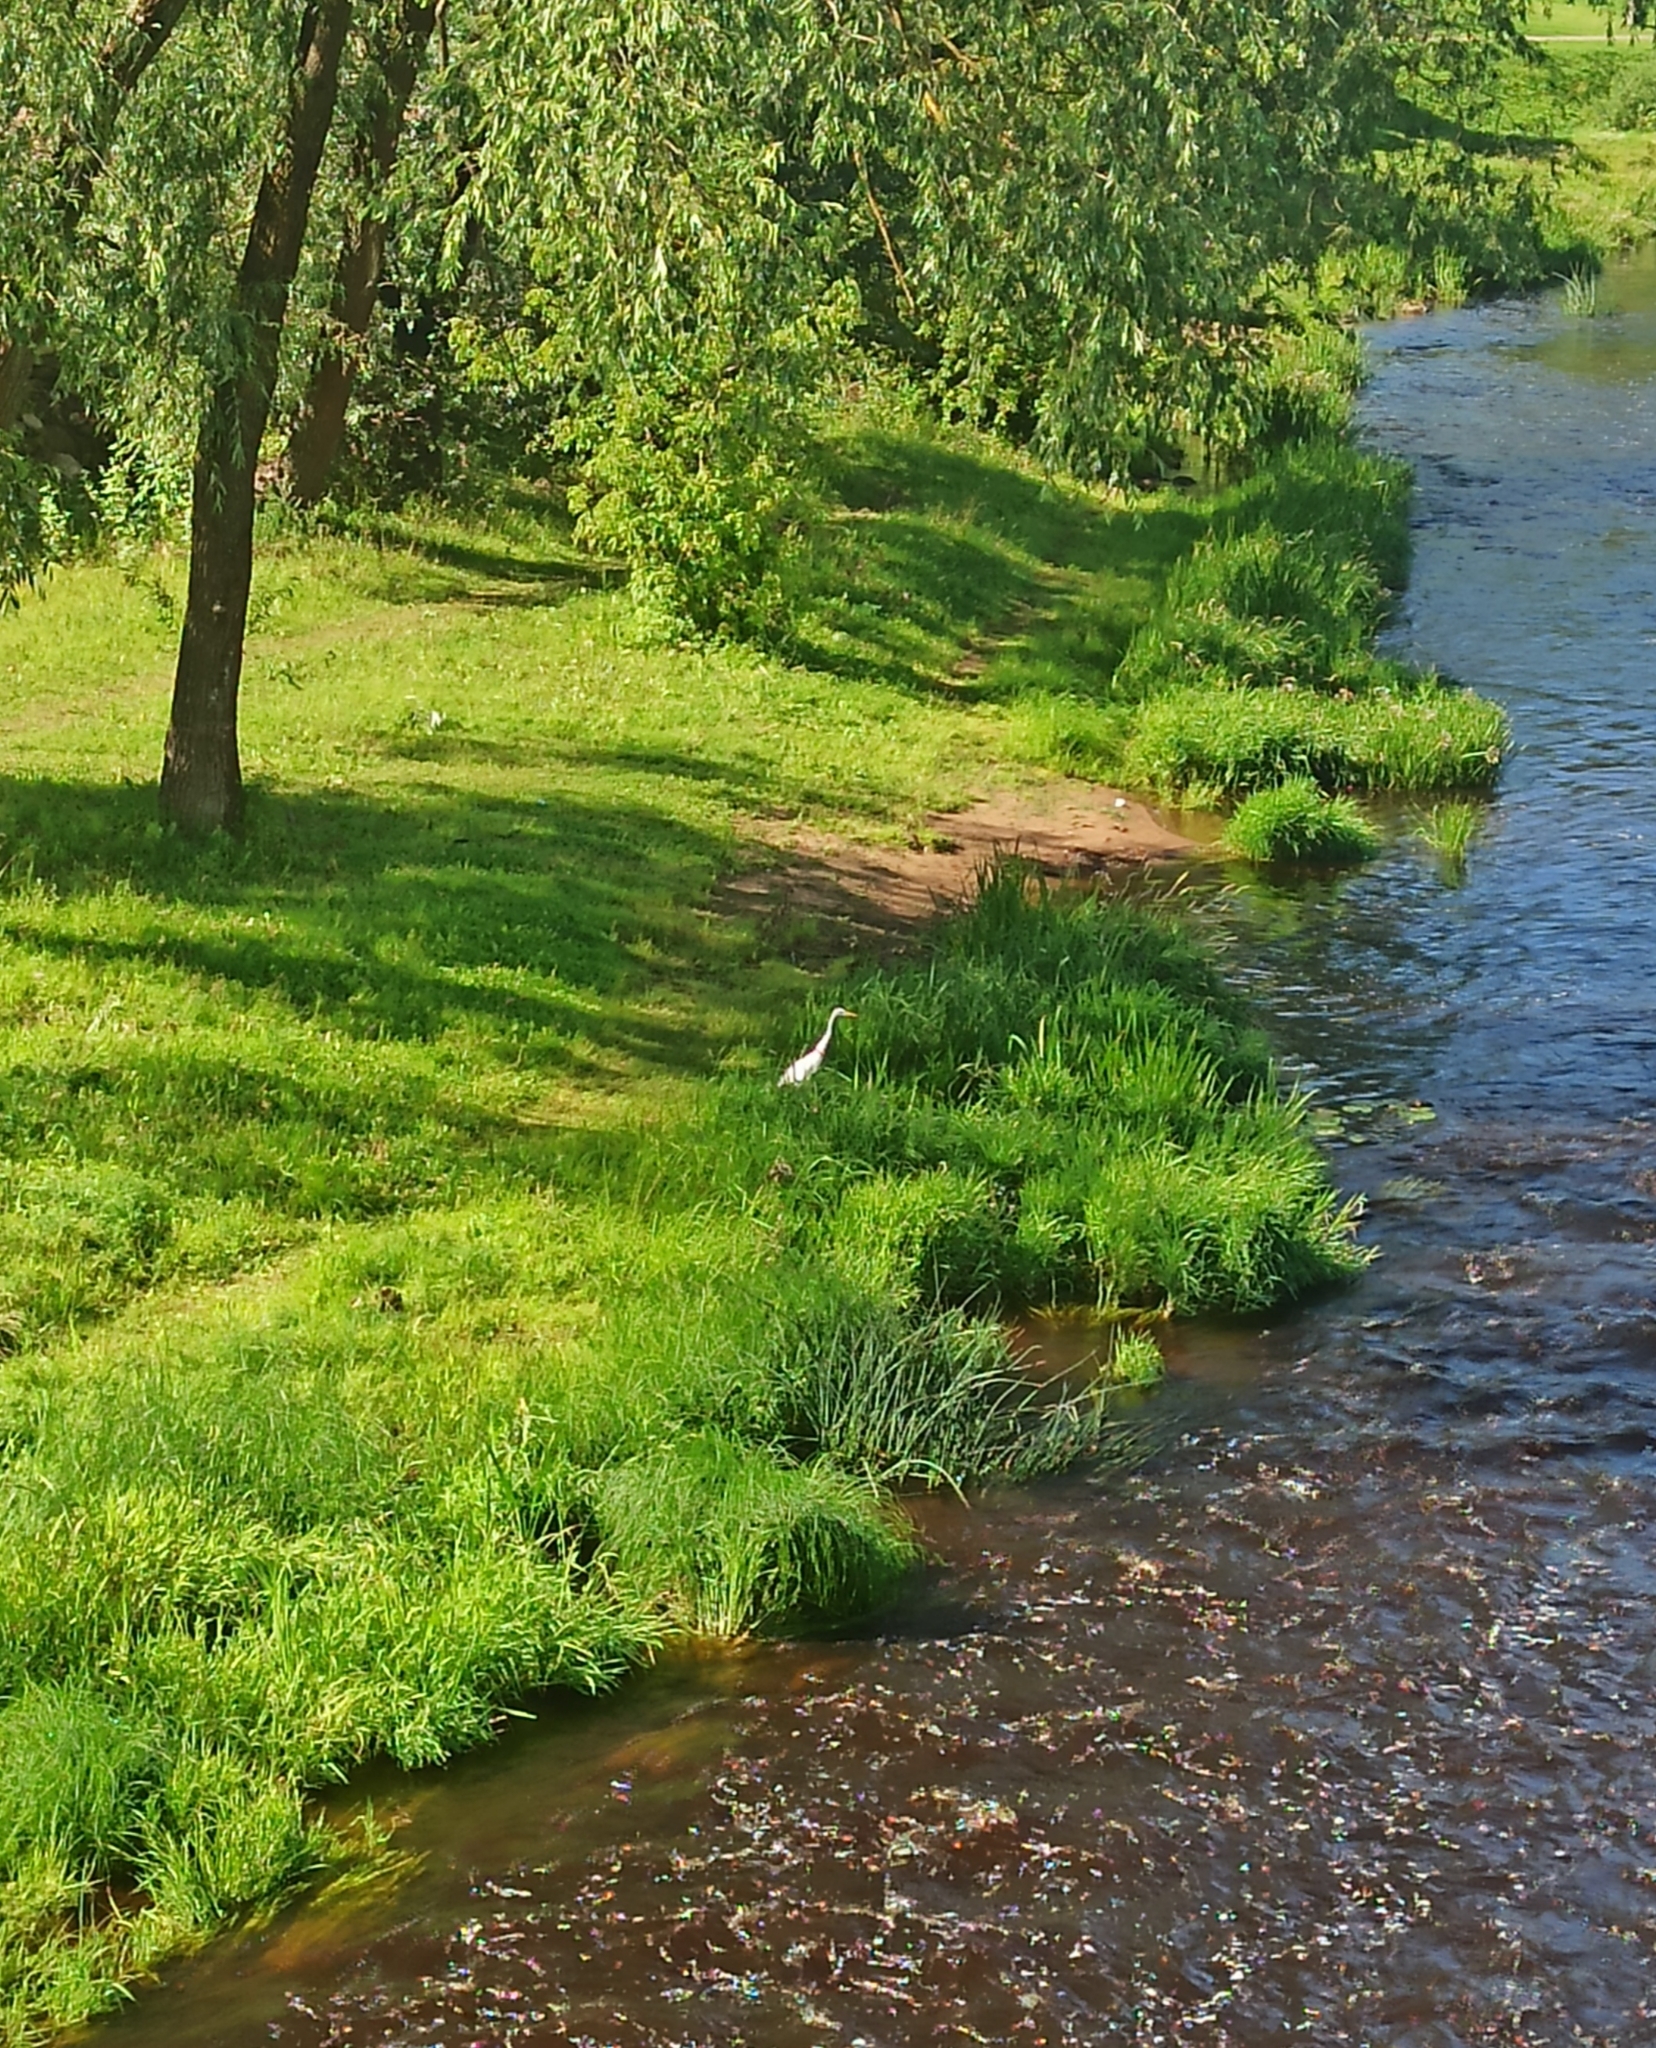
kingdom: Animalia
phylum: Chordata
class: Aves
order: Pelecaniformes
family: Ardeidae
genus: Ardea
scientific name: Ardea alba
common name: Great egret
